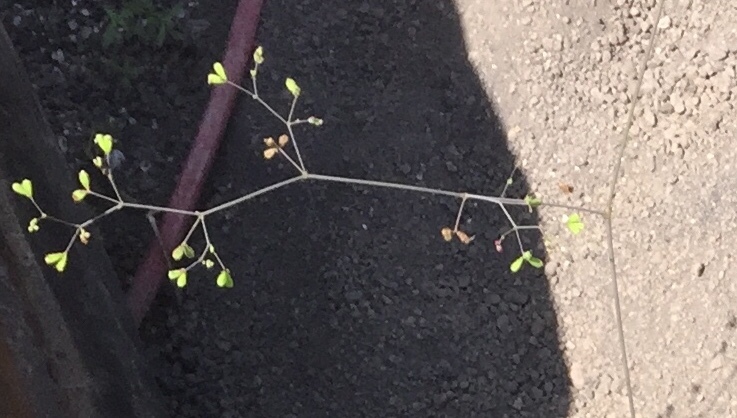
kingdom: Plantae
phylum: Tracheophyta
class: Magnoliopsida
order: Caryophyllales
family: Nyctaginaceae
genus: Boerhavia
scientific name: Boerhavia erecta
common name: Erect spiderling
